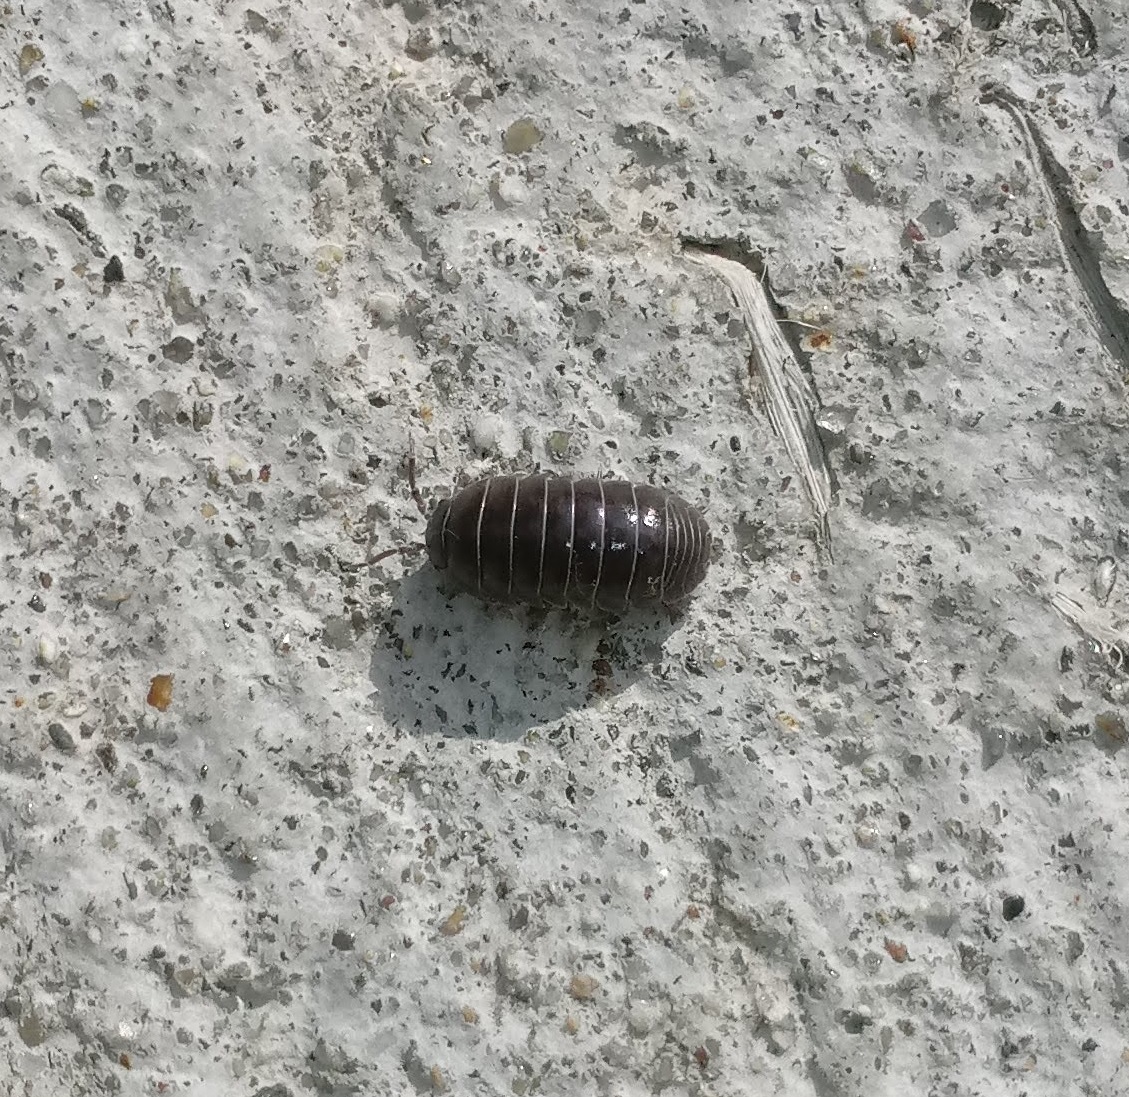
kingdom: Animalia
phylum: Arthropoda
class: Malacostraca
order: Isopoda
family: Armadillidiidae
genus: Armadillidium
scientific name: Armadillidium vulgare
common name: Common pill woodlouse
